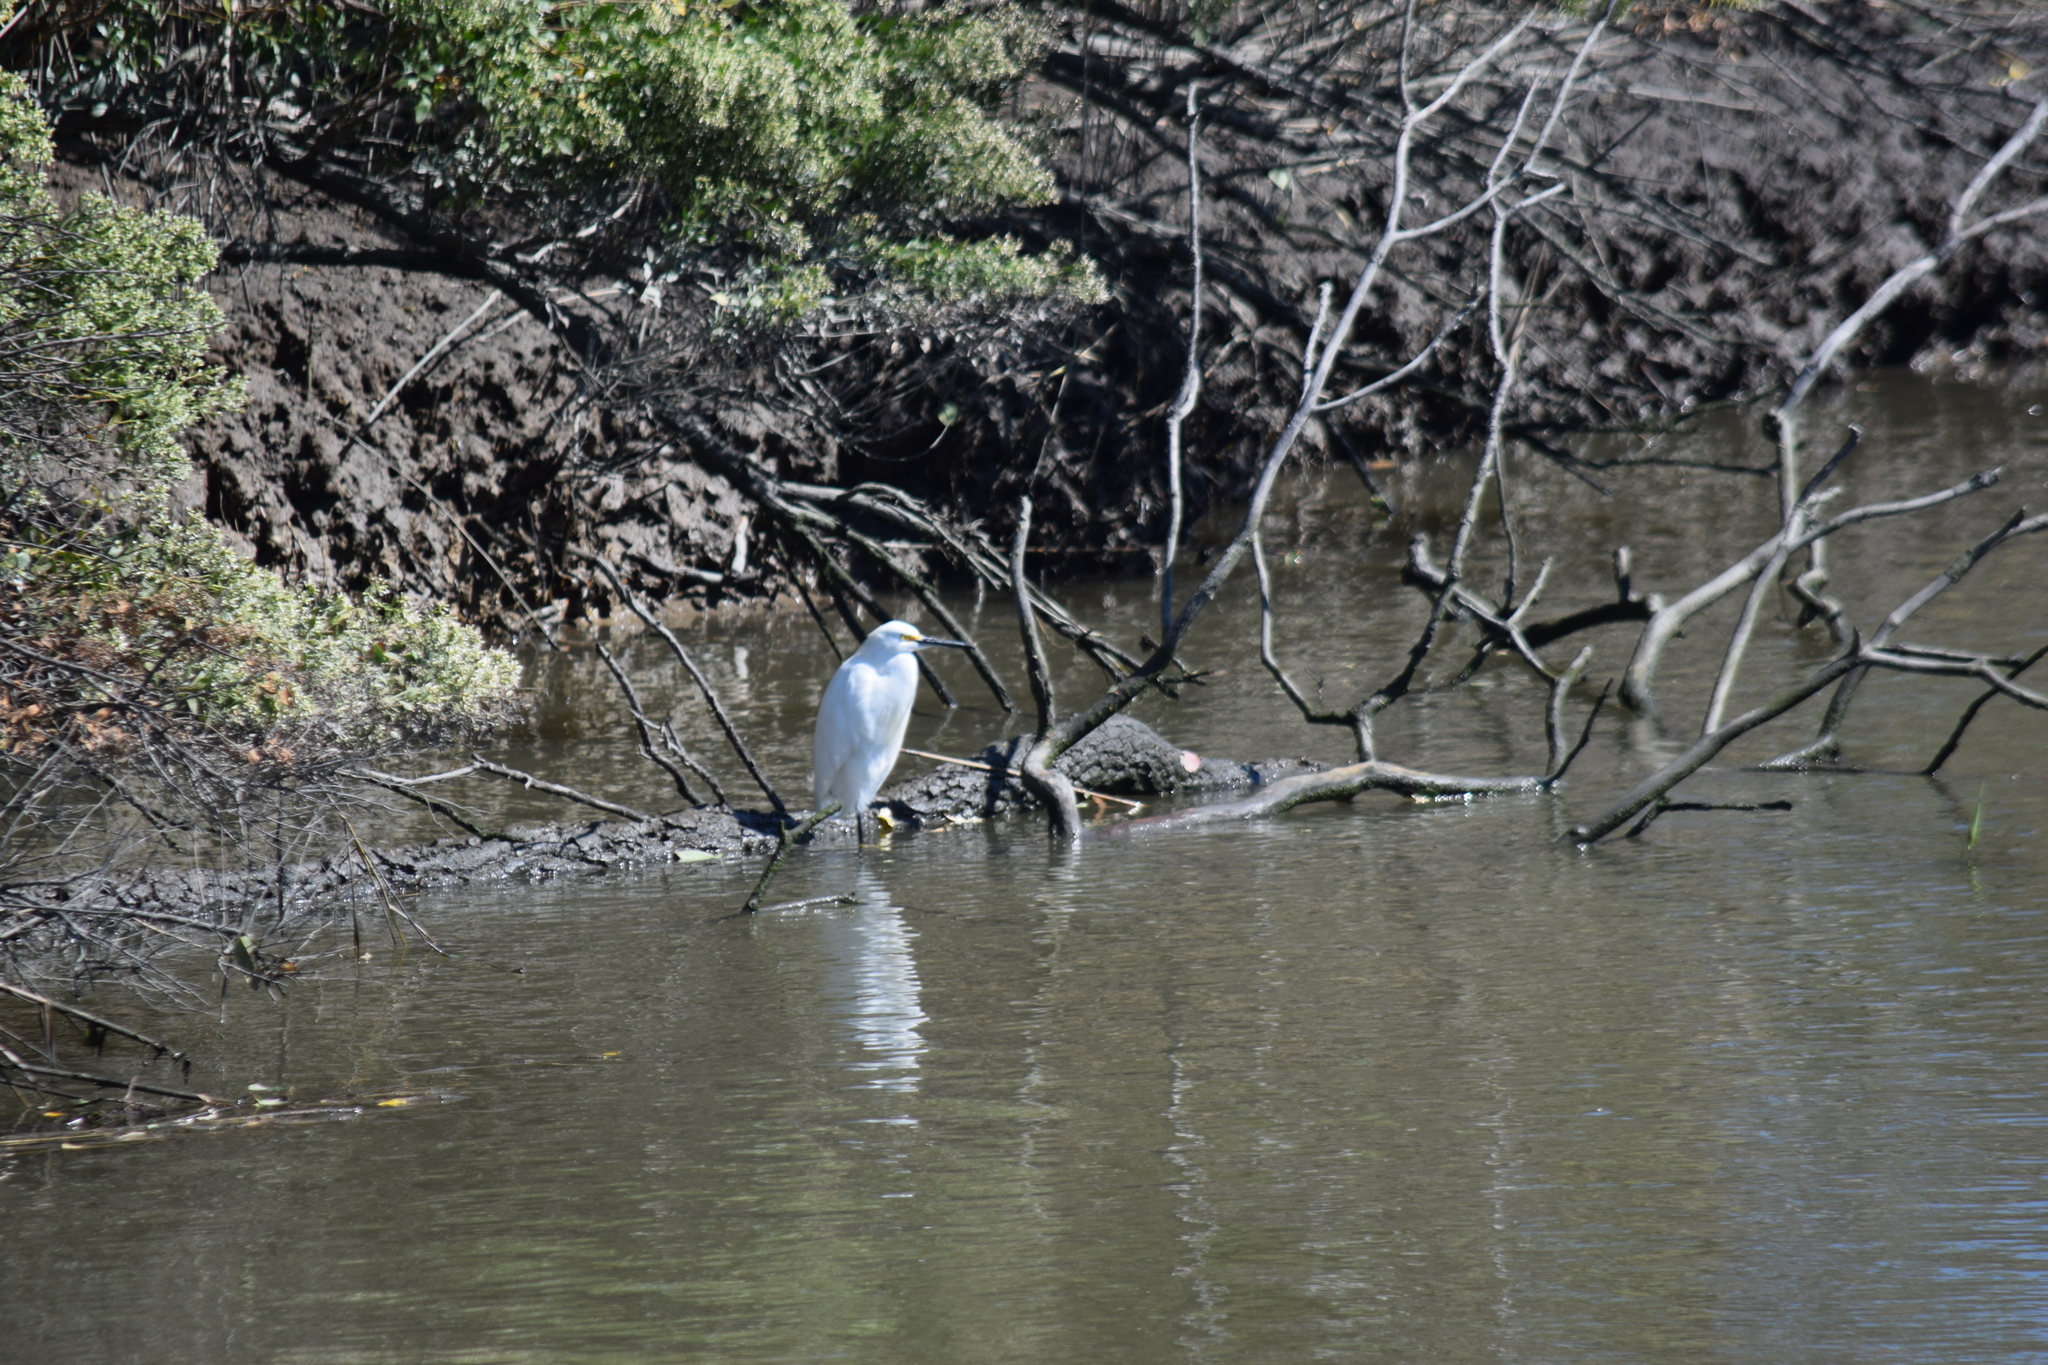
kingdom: Animalia
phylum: Chordata
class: Aves
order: Pelecaniformes
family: Ardeidae
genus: Egretta
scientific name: Egretta thula
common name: Snowy egret
